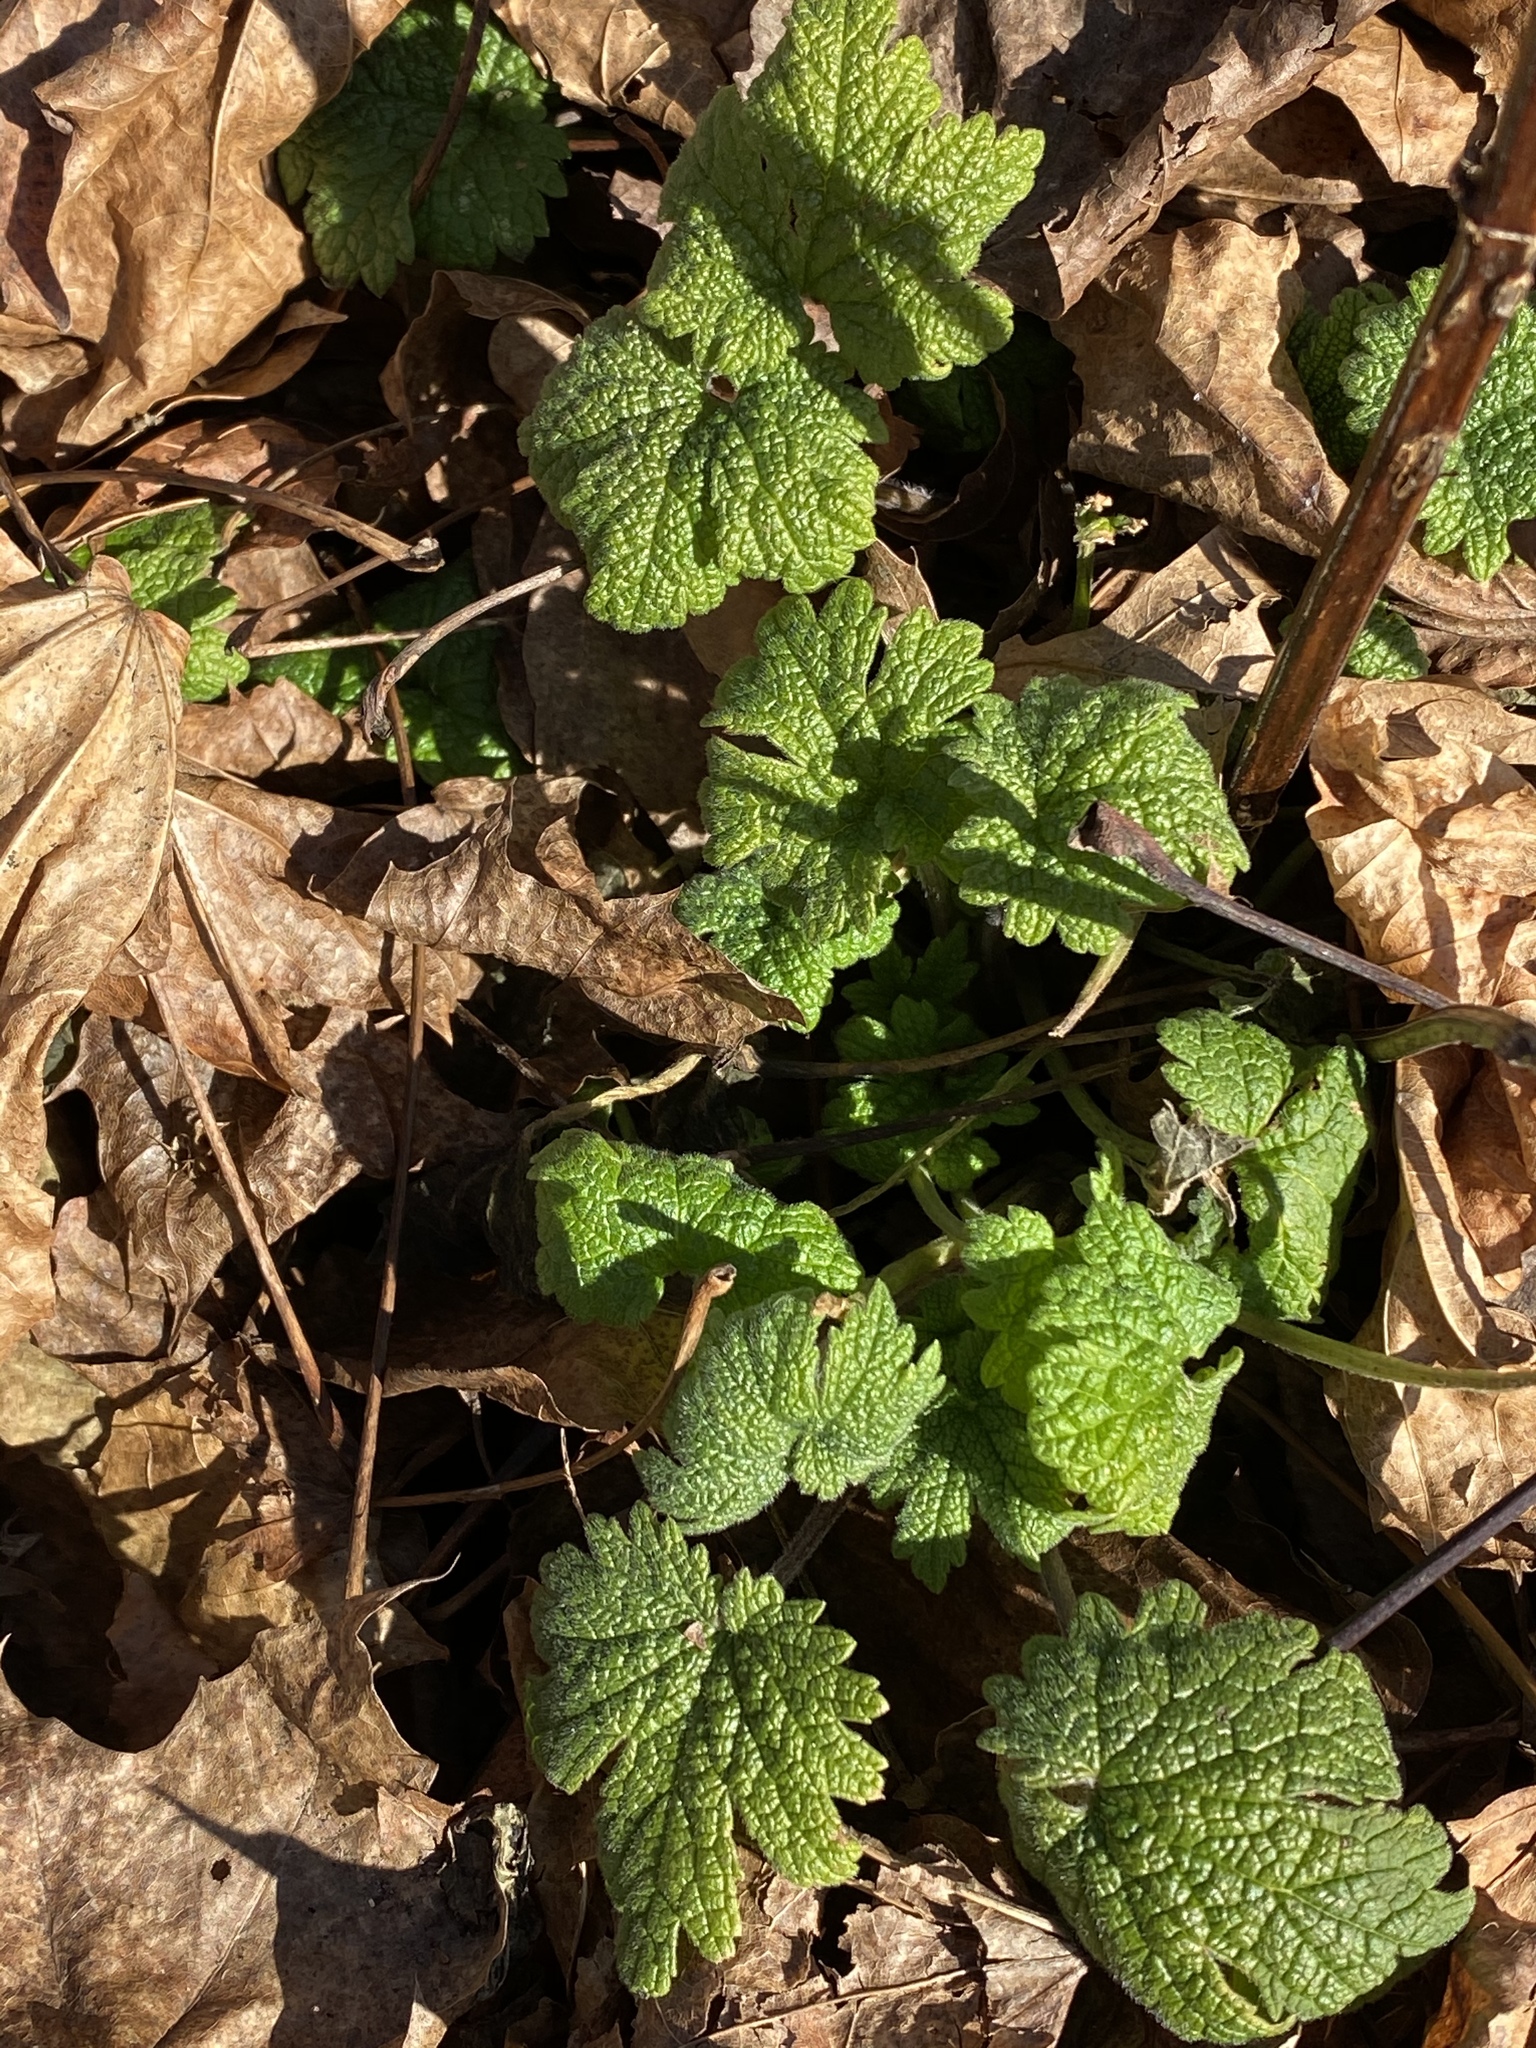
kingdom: Plantae
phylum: Tracheophyta
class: Magnoliopsida
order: Lamiales
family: Lamiaceae
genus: Leonurus
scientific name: Leonurus cardiaca
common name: Motherwort
